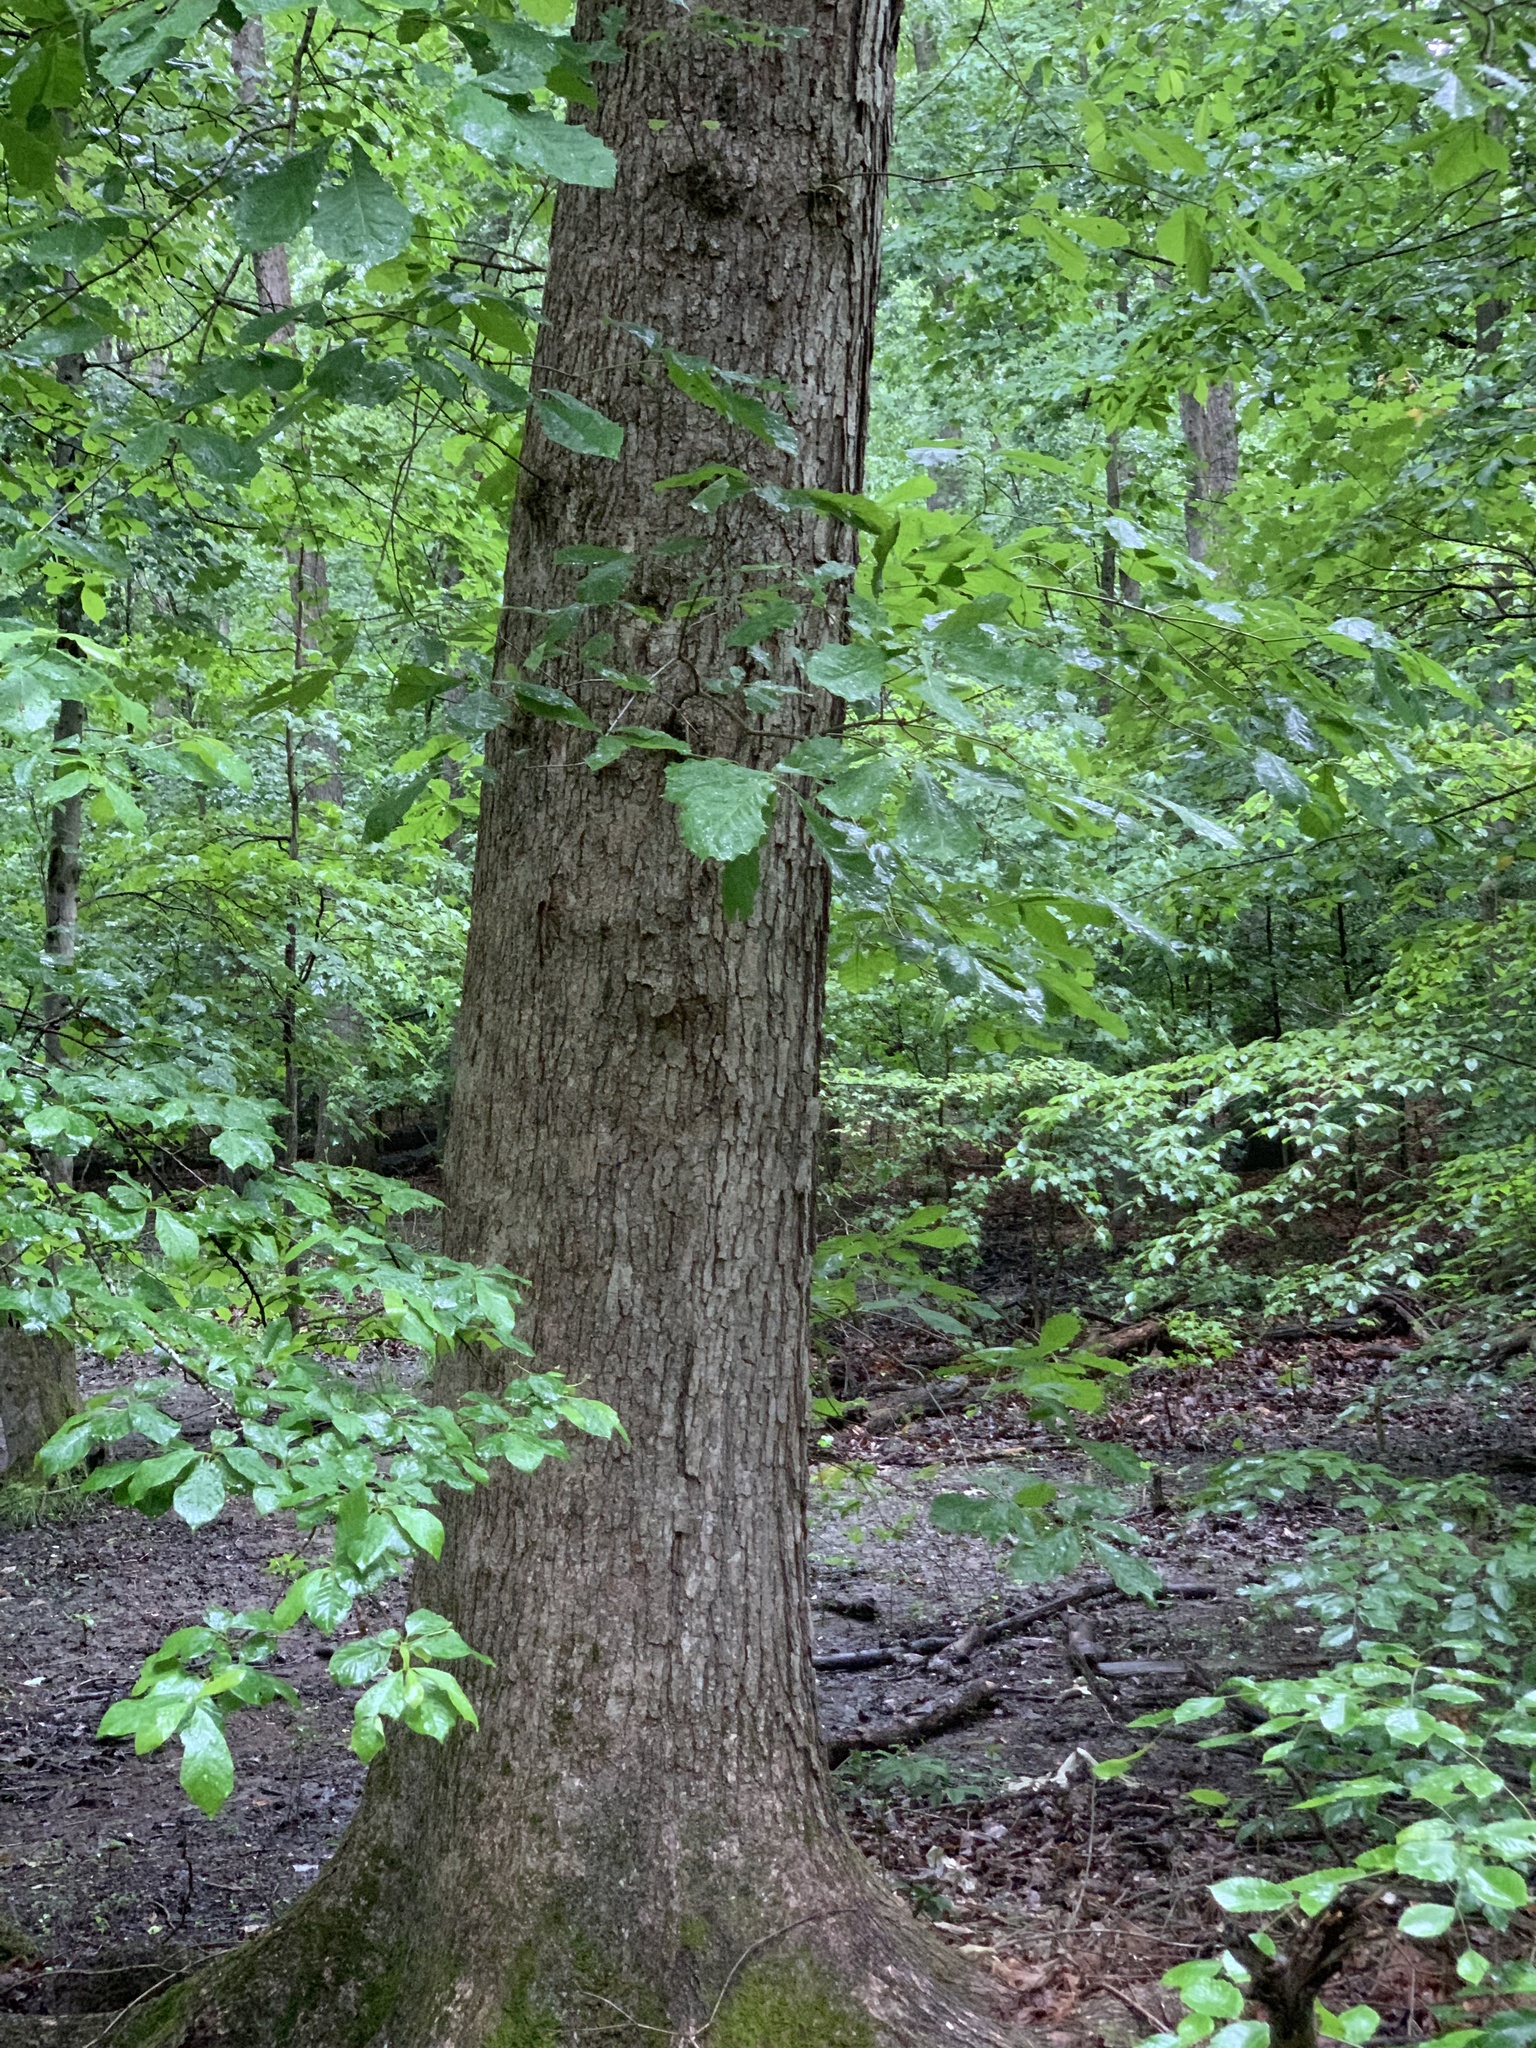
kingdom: Plantae
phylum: Tracheophyta
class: Magnoliopsida
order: Fagales
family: Fagaceae
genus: Quercus
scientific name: Quercus michauxii
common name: Swamp chestnut oak
